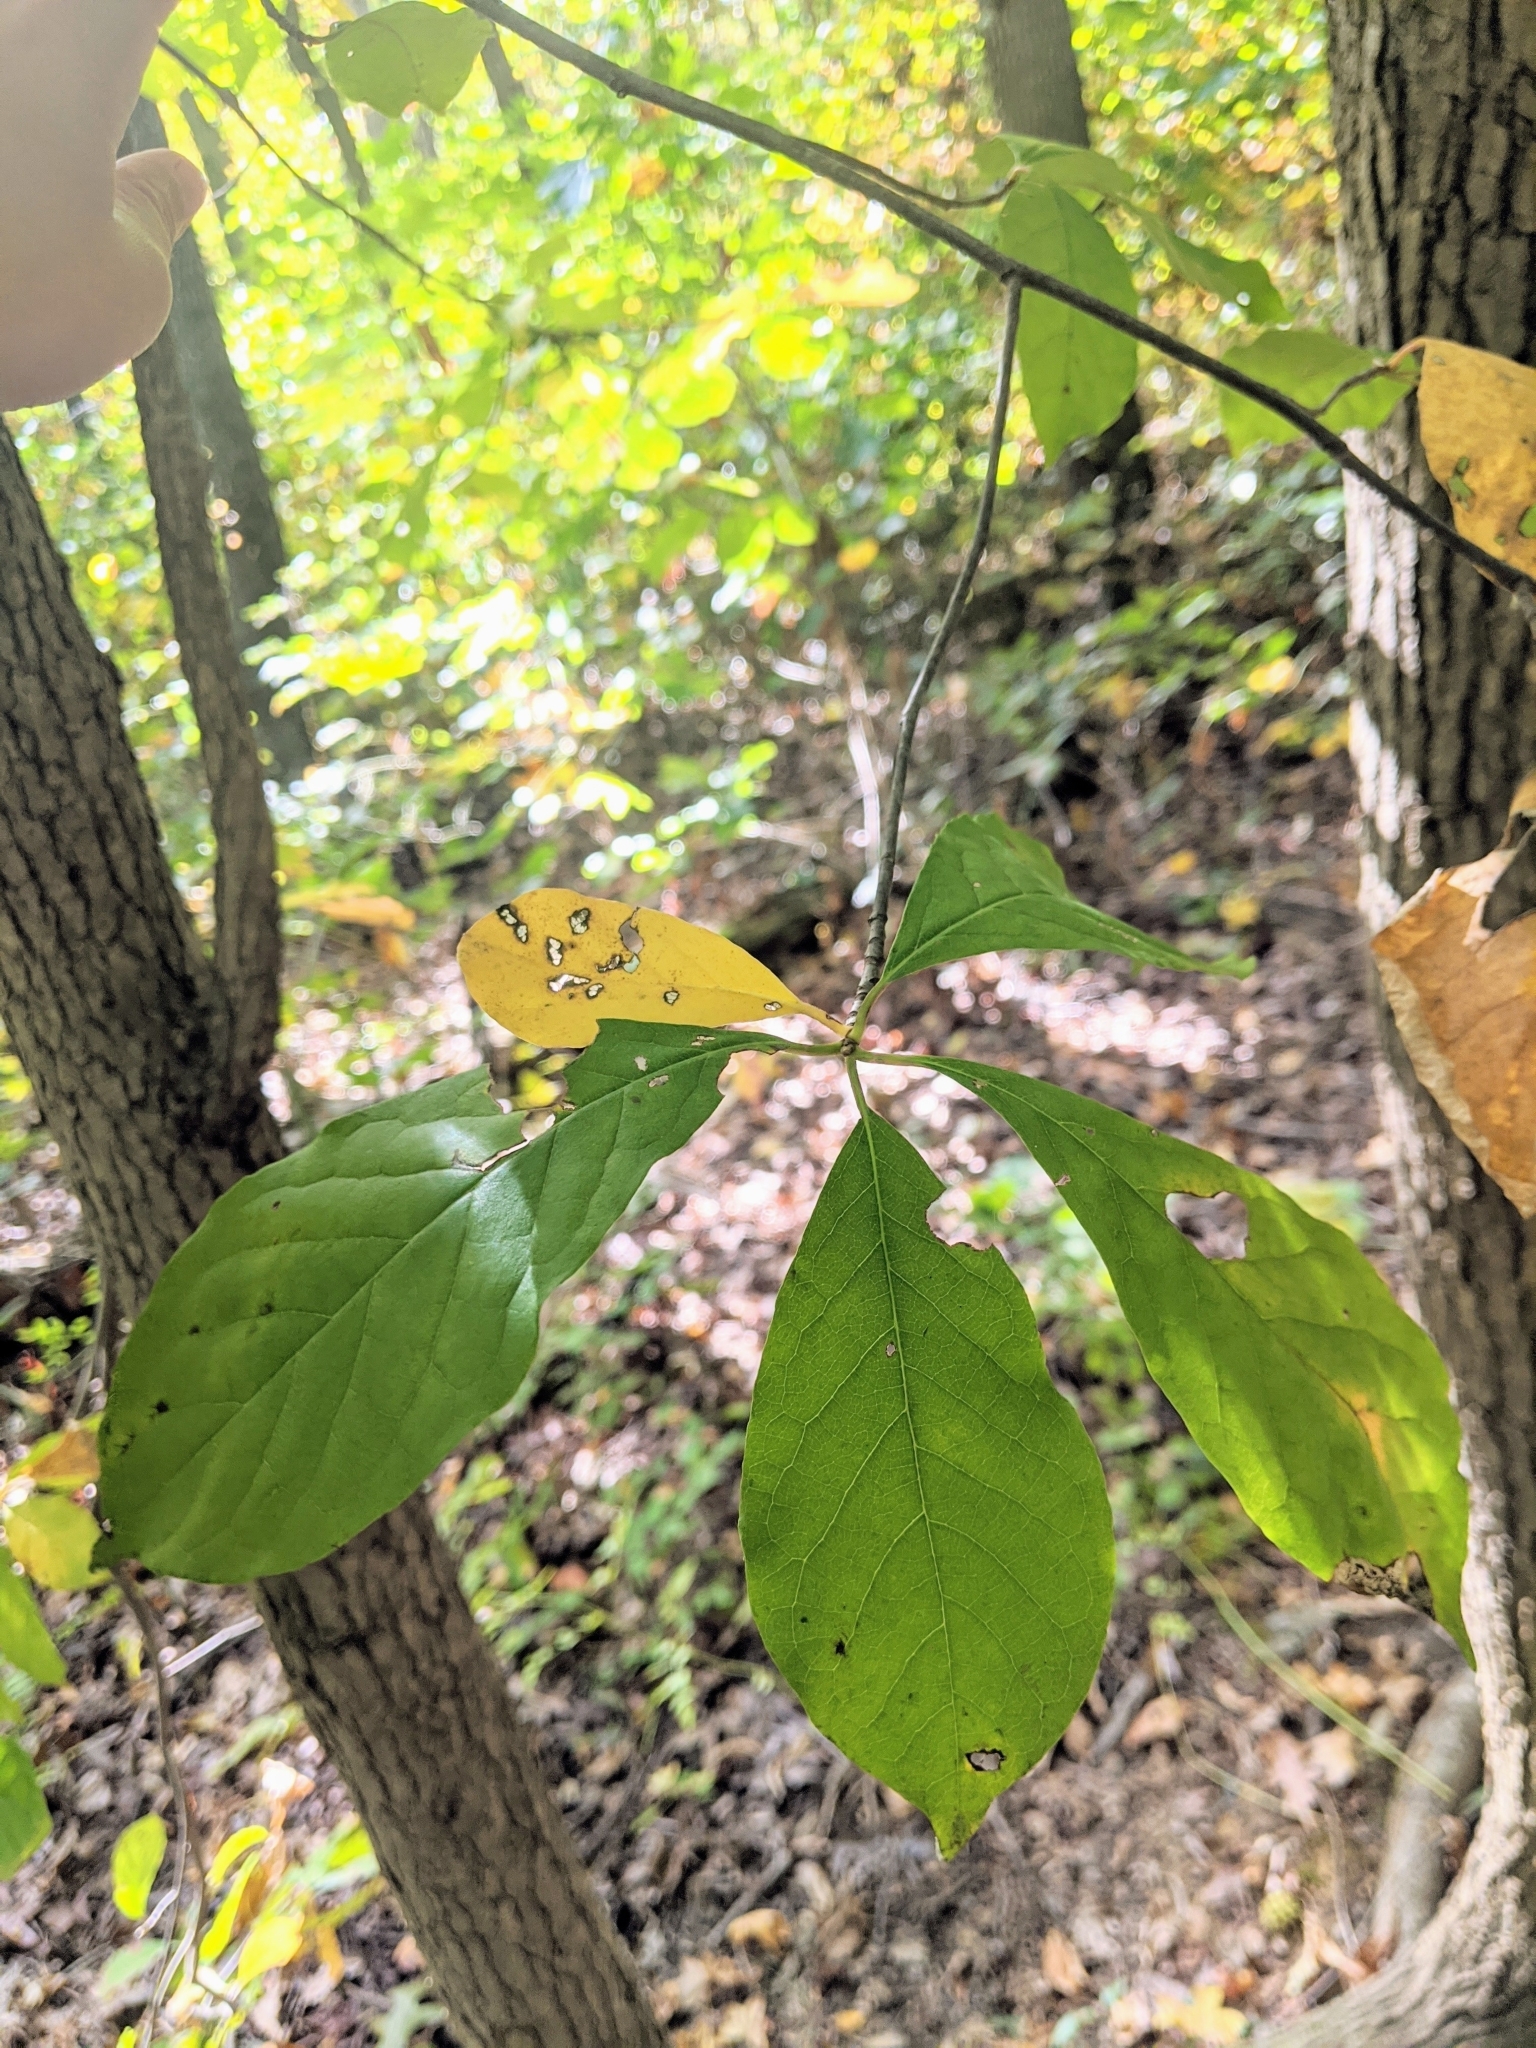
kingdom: Plantae
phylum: Tracheophyta
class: Magnoliopsida
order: Cornales
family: Nyssaceae
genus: Nyssa
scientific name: Nyssa sylvatica
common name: Black tupelo
